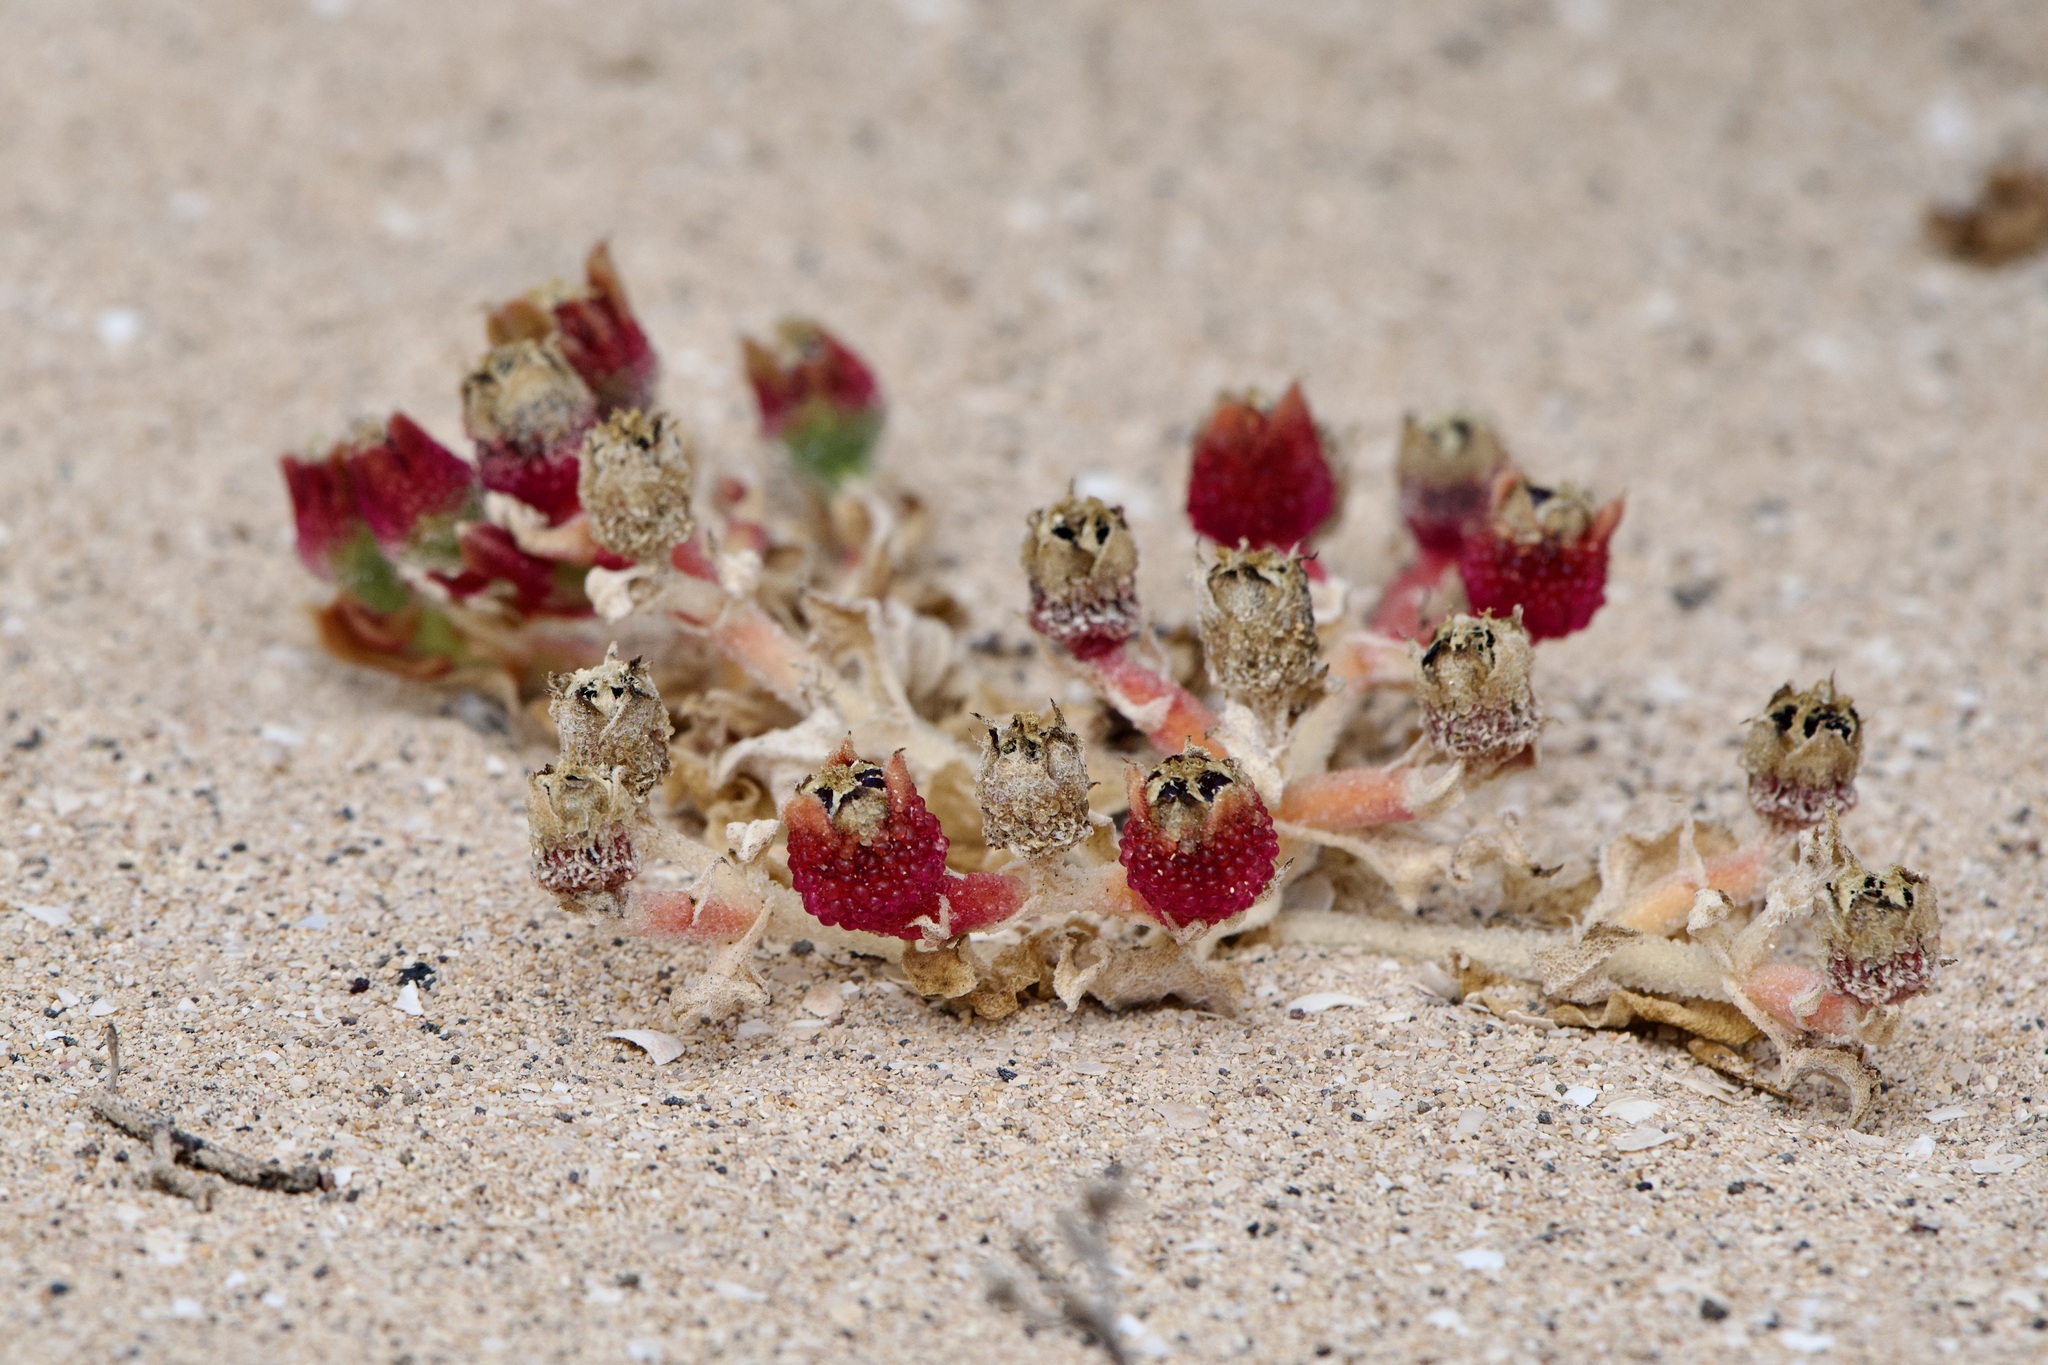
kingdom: Plantae
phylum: Tracheophyta
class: Magnoliopsida
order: Caryophyllales
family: Aizoaceae
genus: Mesembryanthemum
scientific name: Mesembryanthemum crystallinum
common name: Common iceplant
